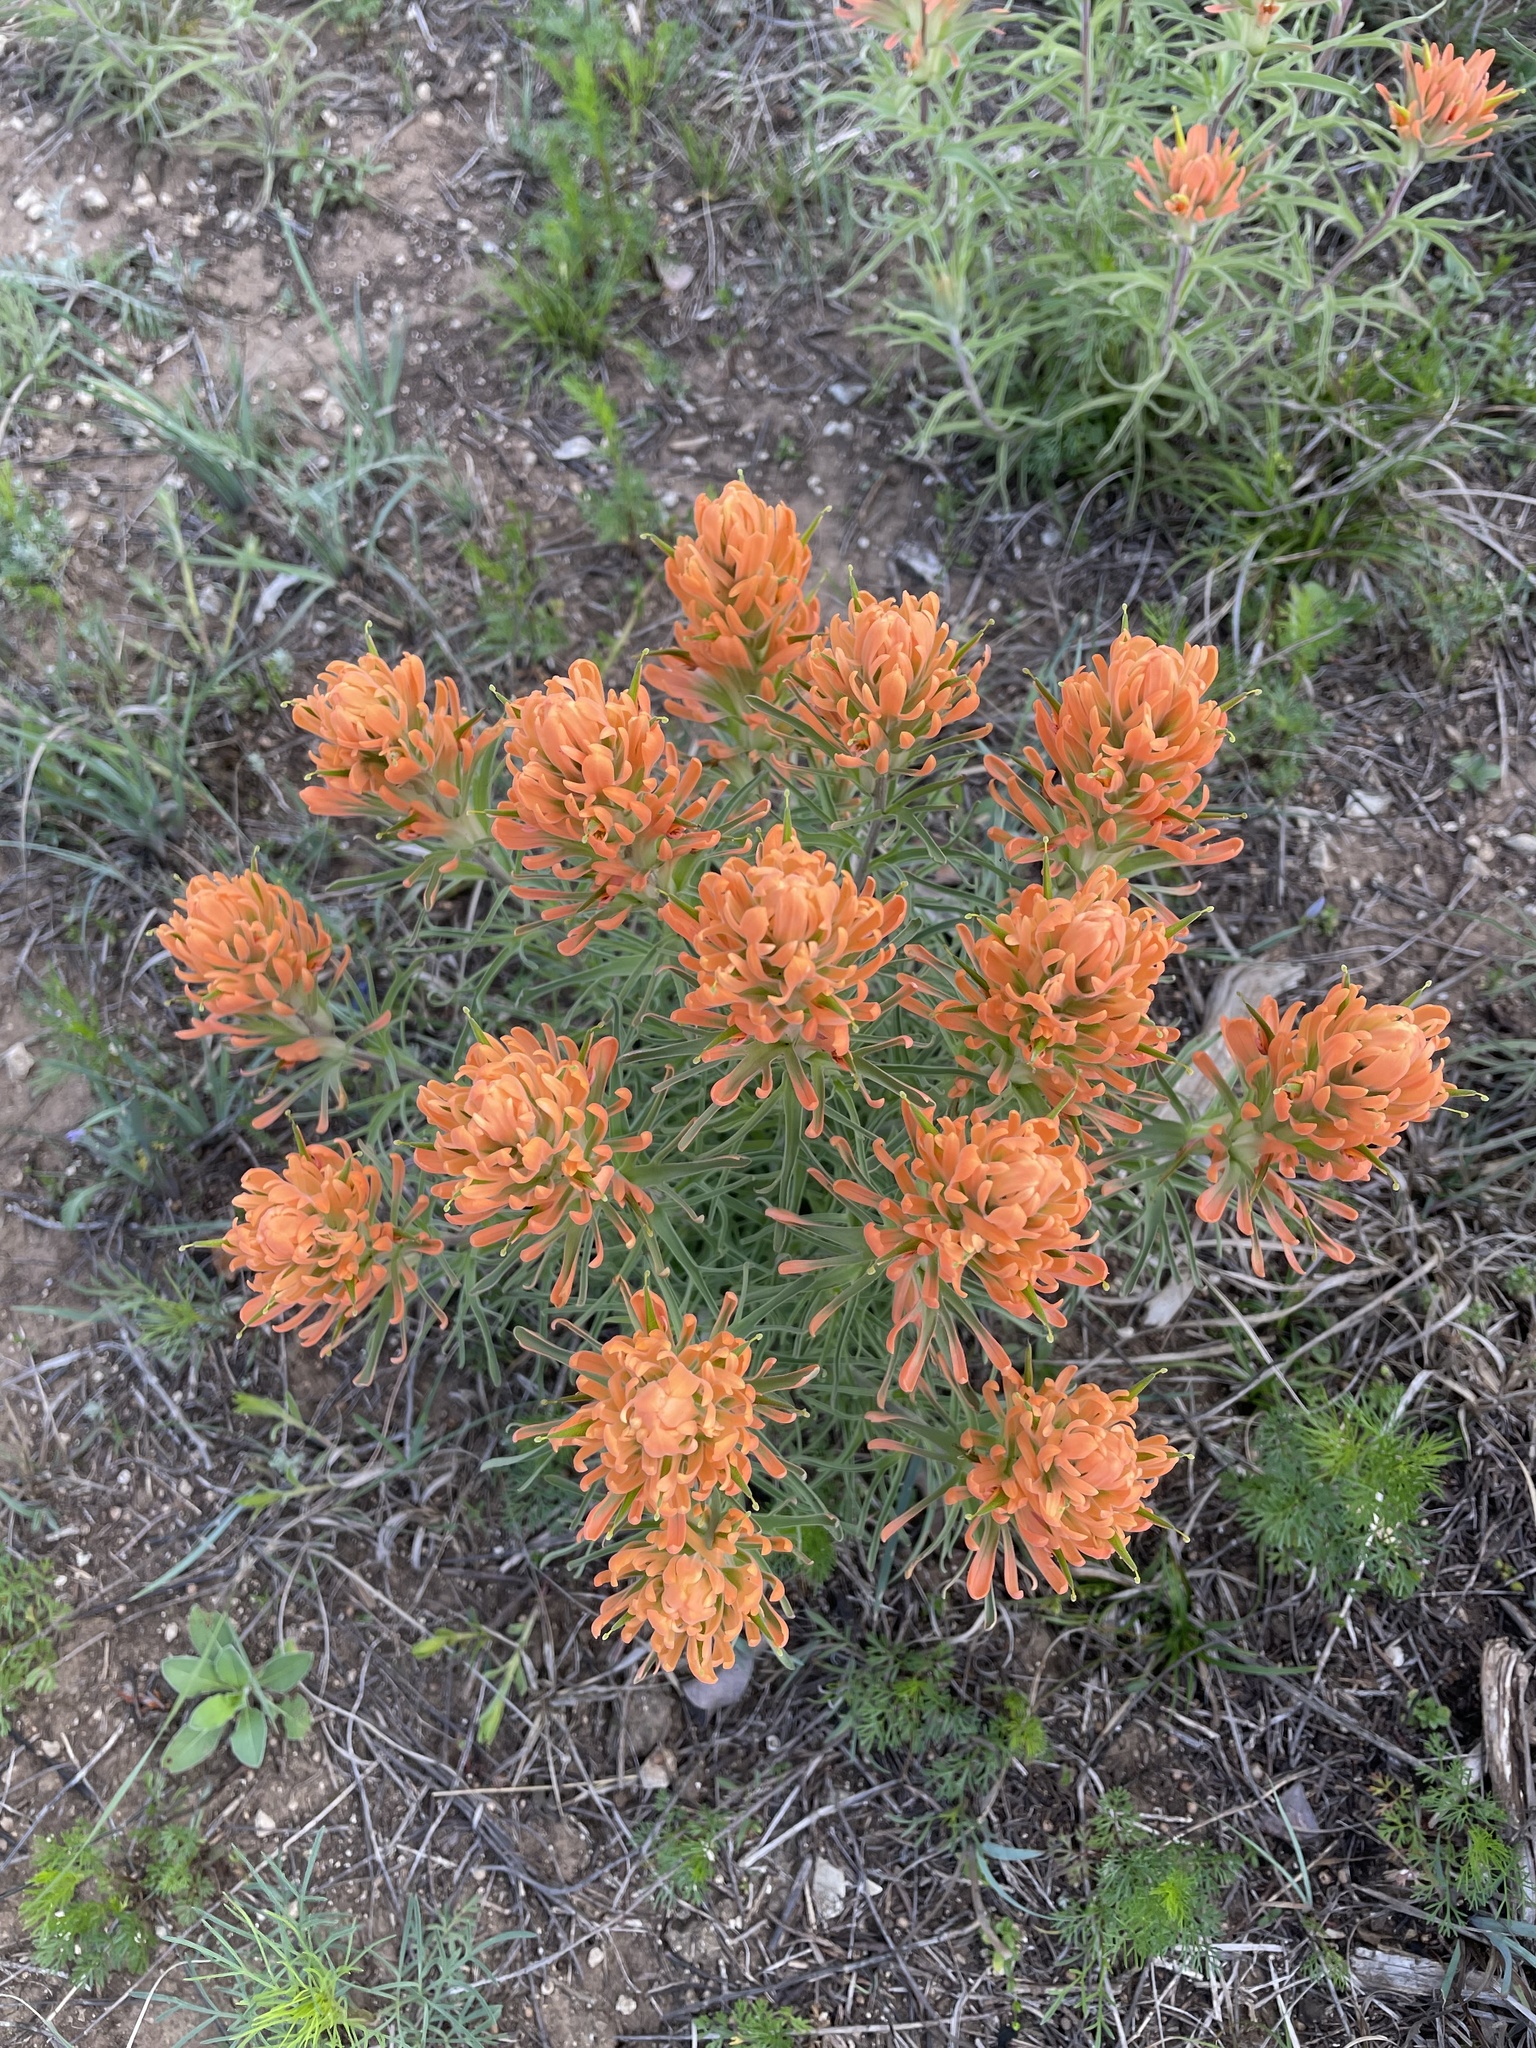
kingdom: Plantae
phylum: Tracheophyta
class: Magnoliopsida
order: Lamiales
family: Orobanchaceae
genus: Castilleja
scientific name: Castilleja lindheimeri
